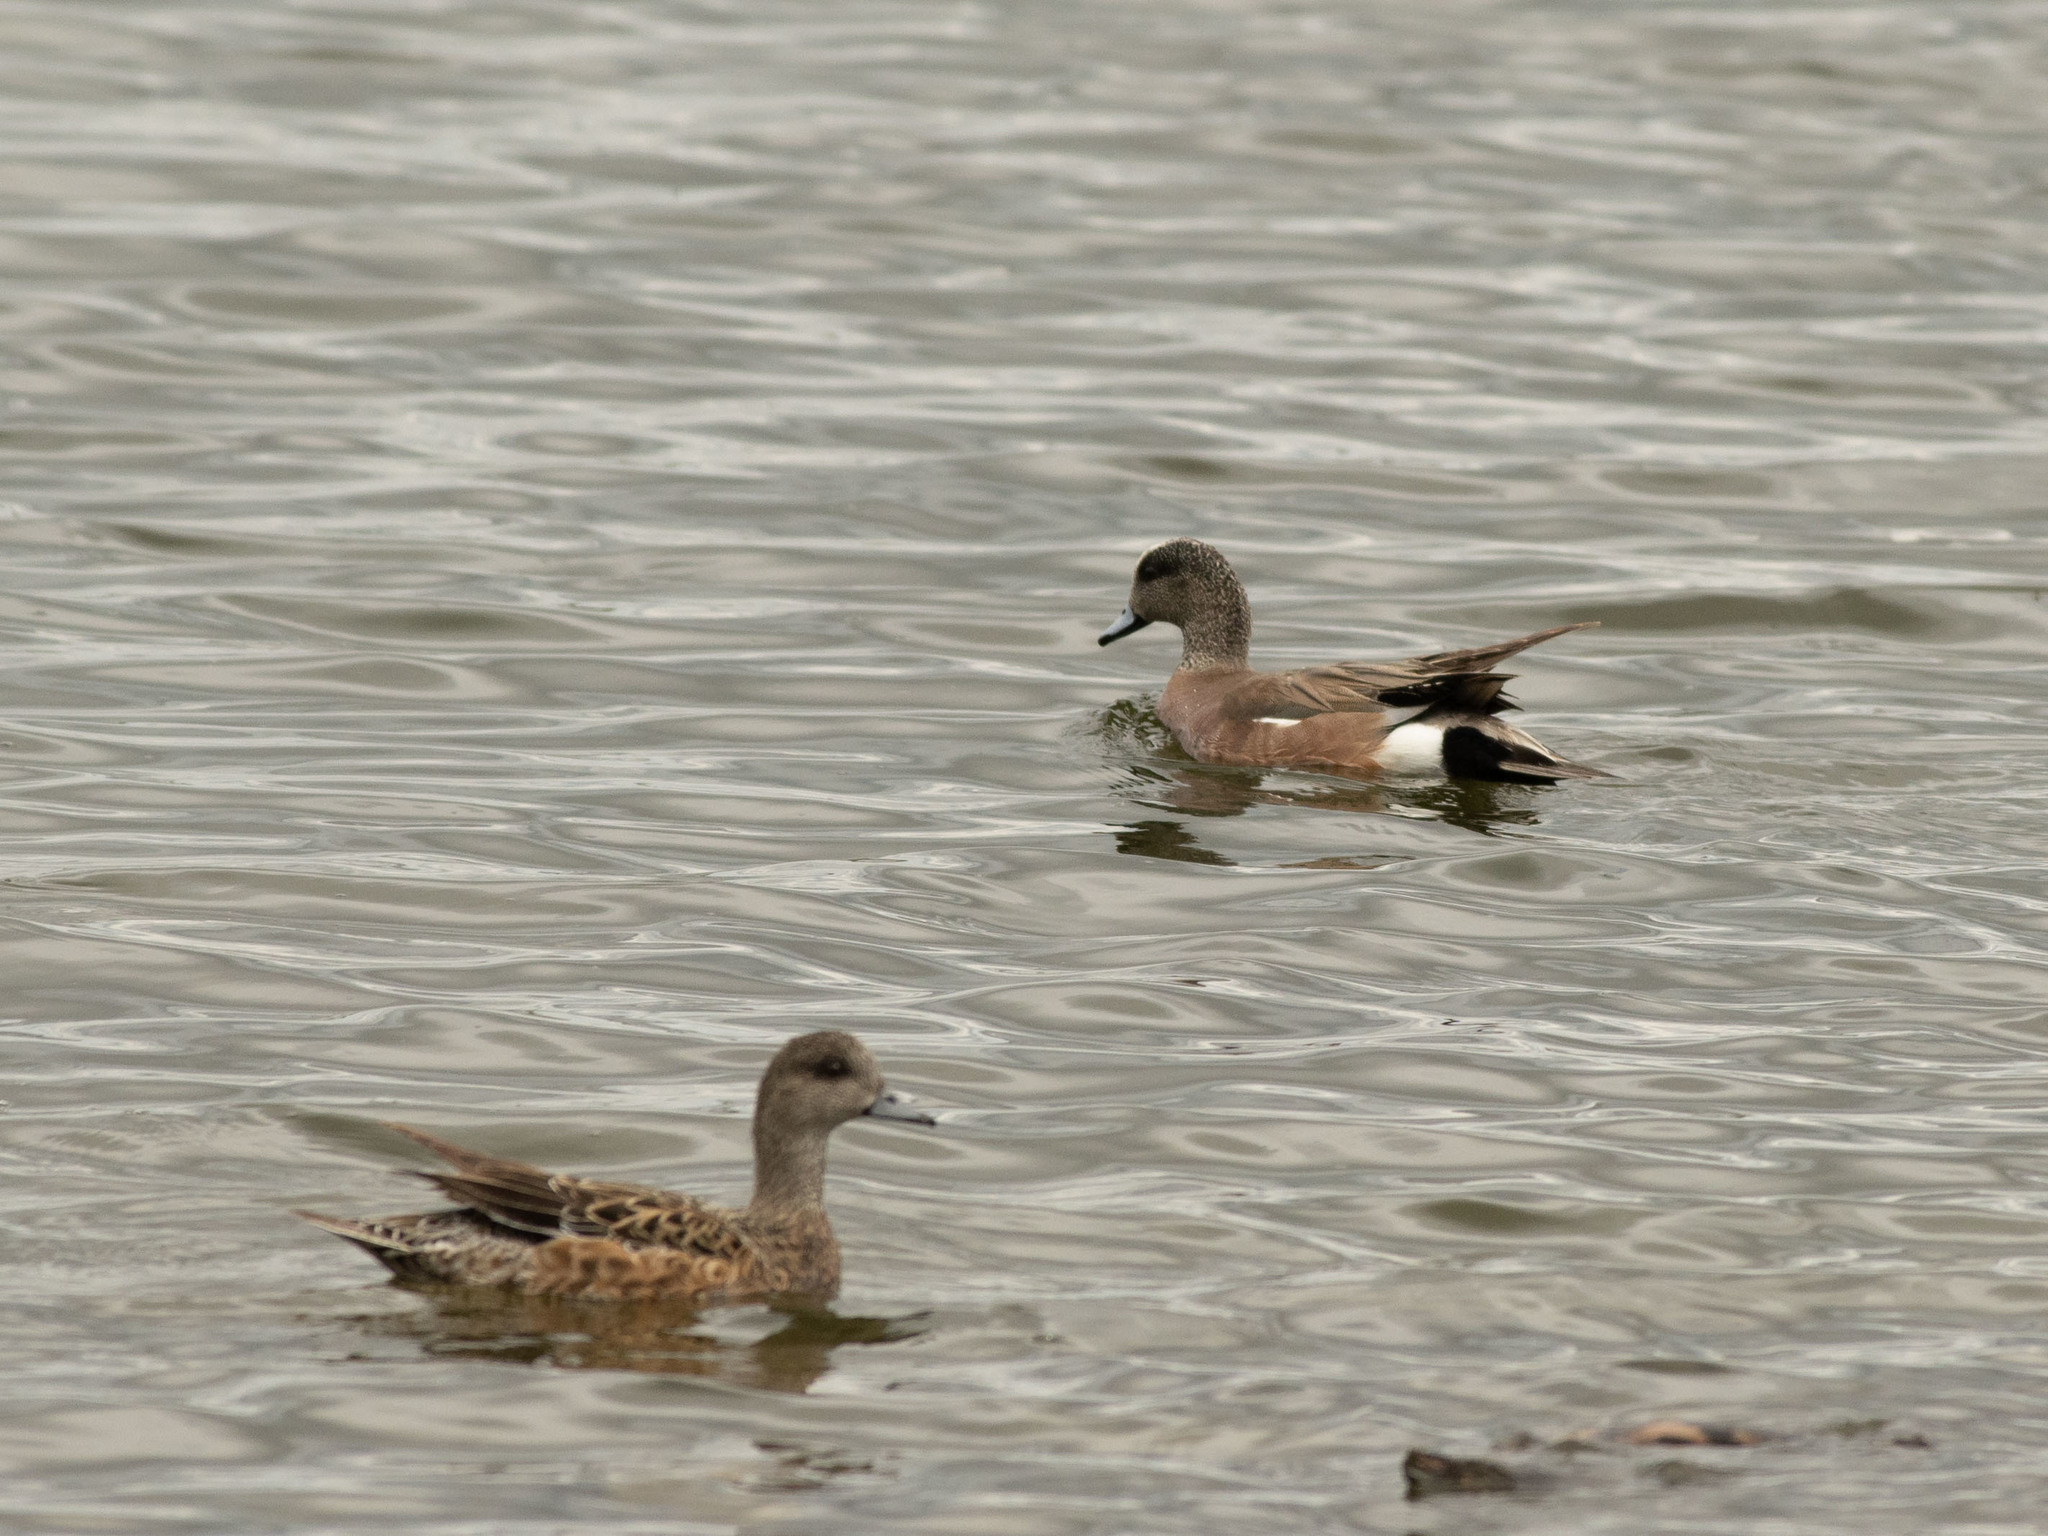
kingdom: Animalia
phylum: Chordata
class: Aves
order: Anseriformes
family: Anatidae
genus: Mareca
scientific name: Mareca americana
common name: American wigeon
